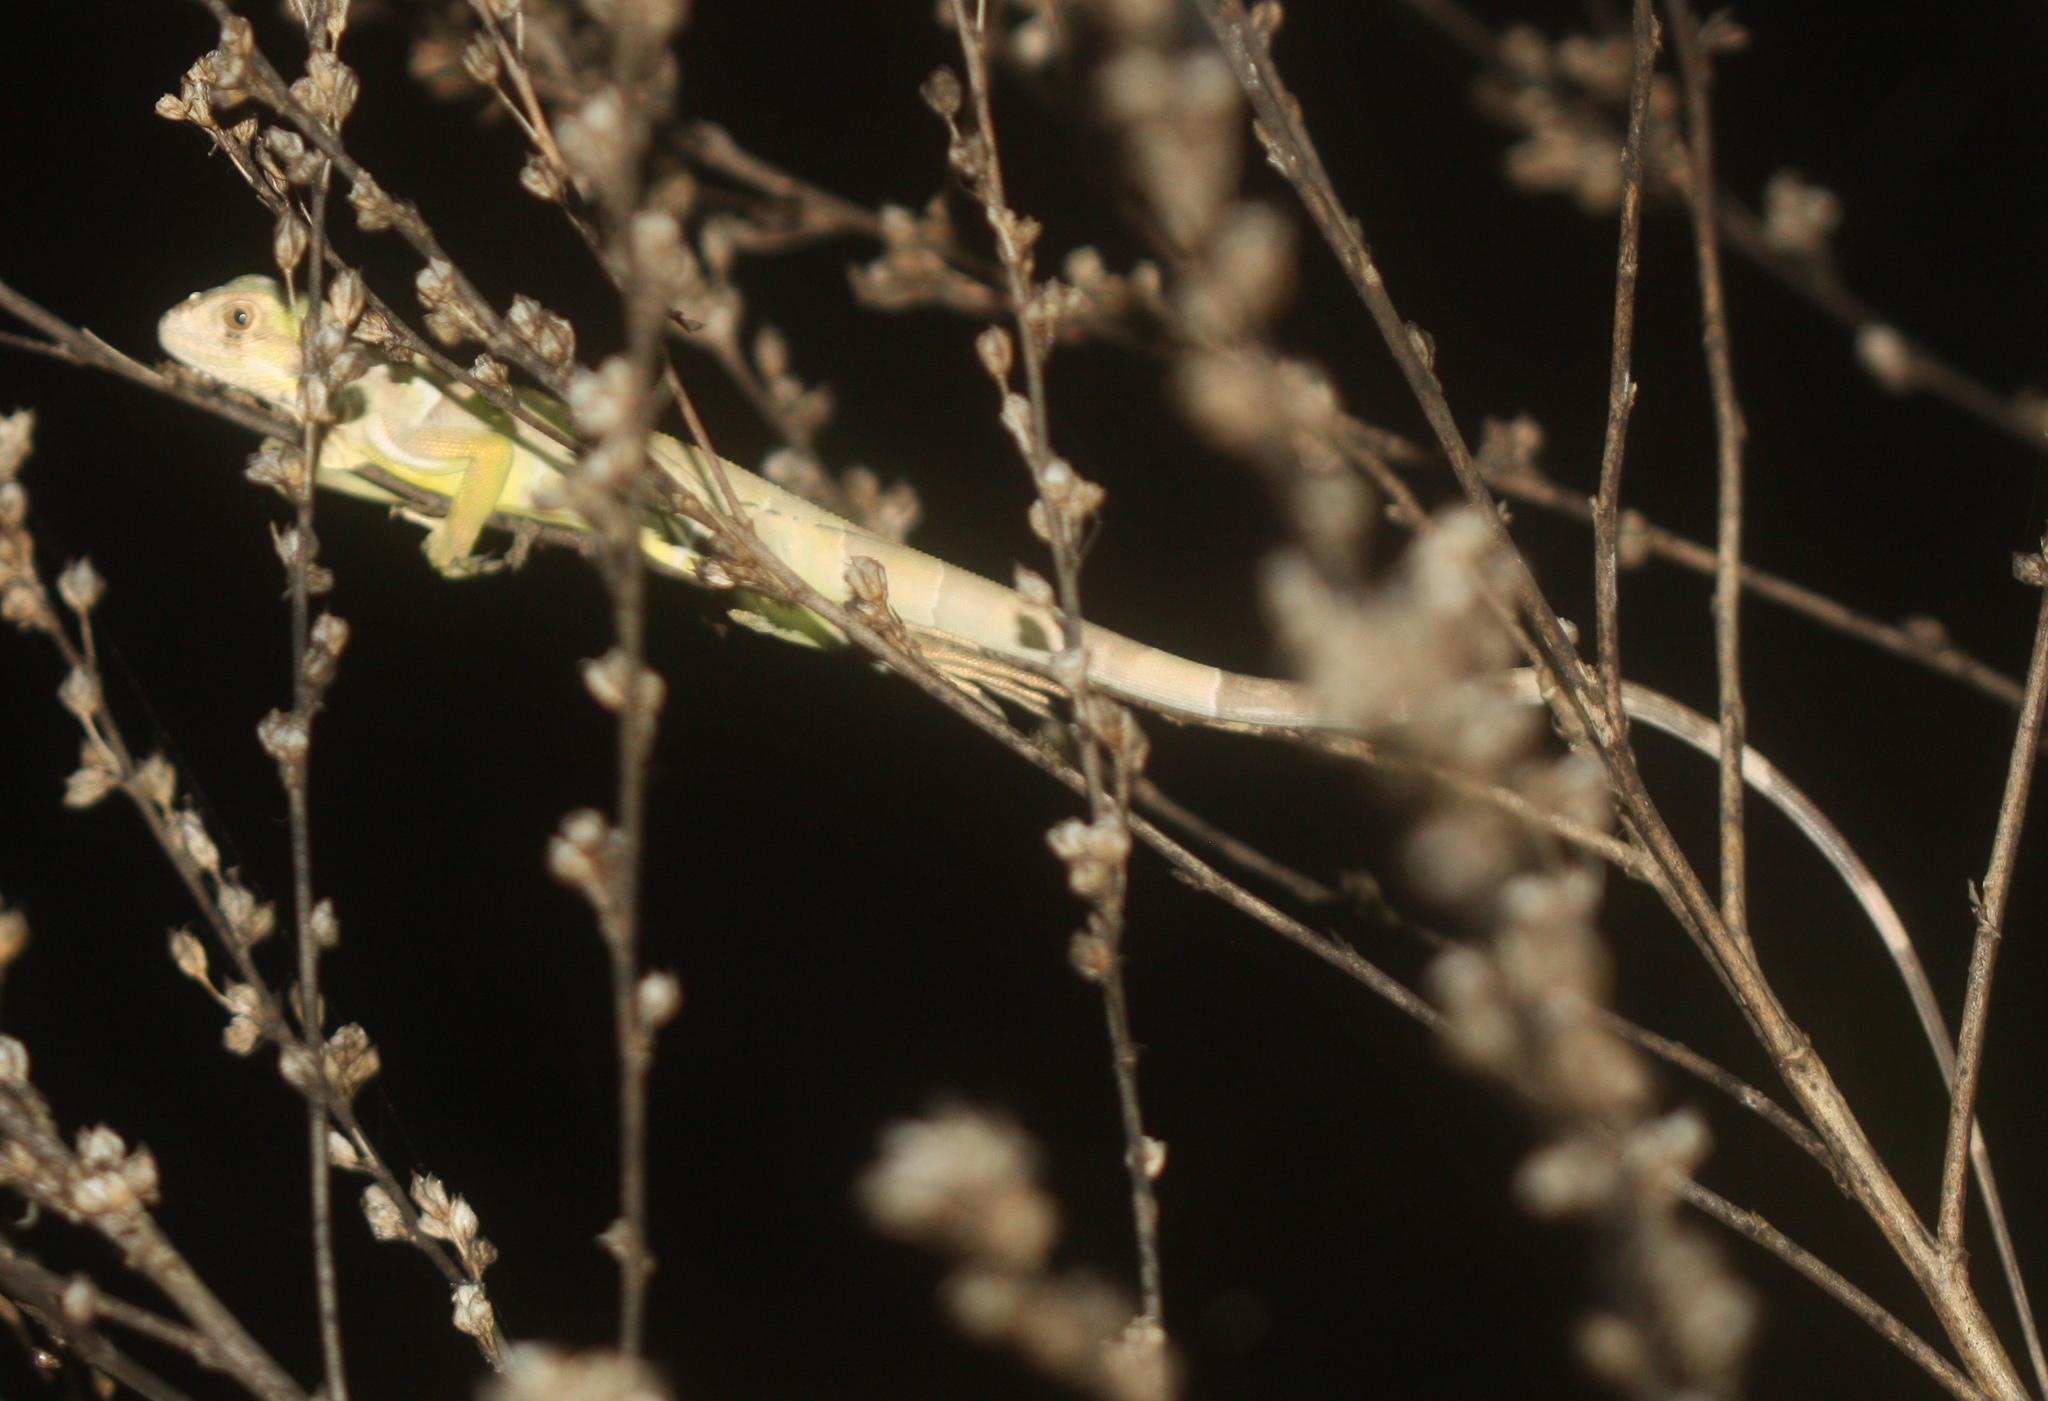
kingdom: Animalia
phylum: Chordata
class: Squamata
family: Iguanidae
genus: Iguana
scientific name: Iguana iguana
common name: Green iguana
